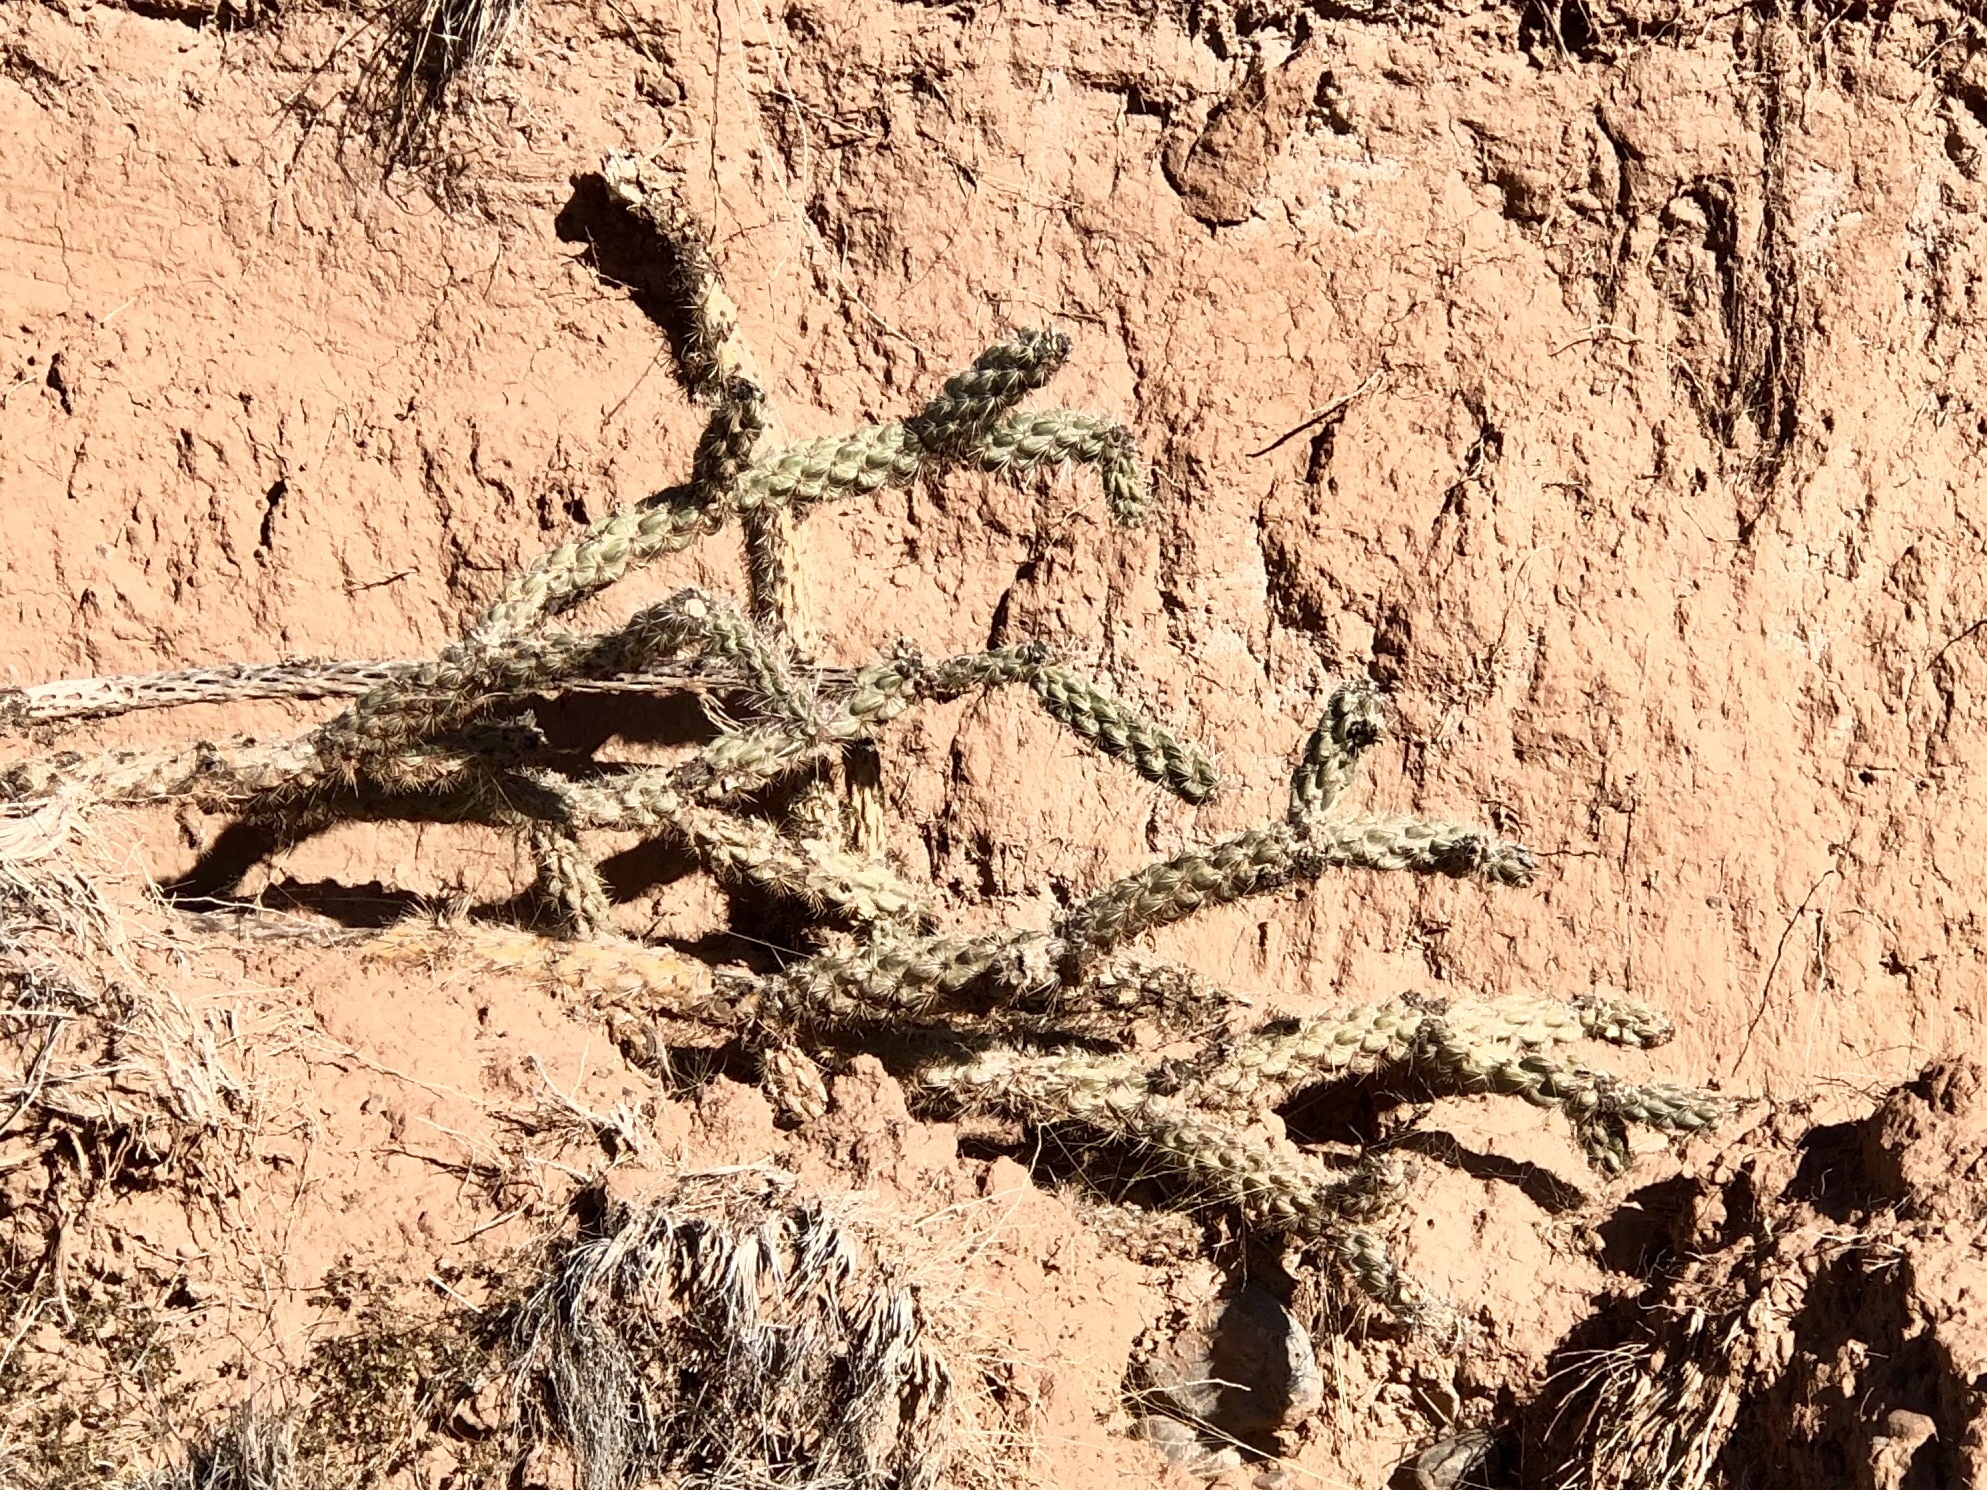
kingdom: Plantae
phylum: Tracheophyta
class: Magnoliopsida
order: Caryophyllales
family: Cactaceae
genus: Cylindropuntia
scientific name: Cylindropuntia imbricata
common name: Candelabrum cactus
